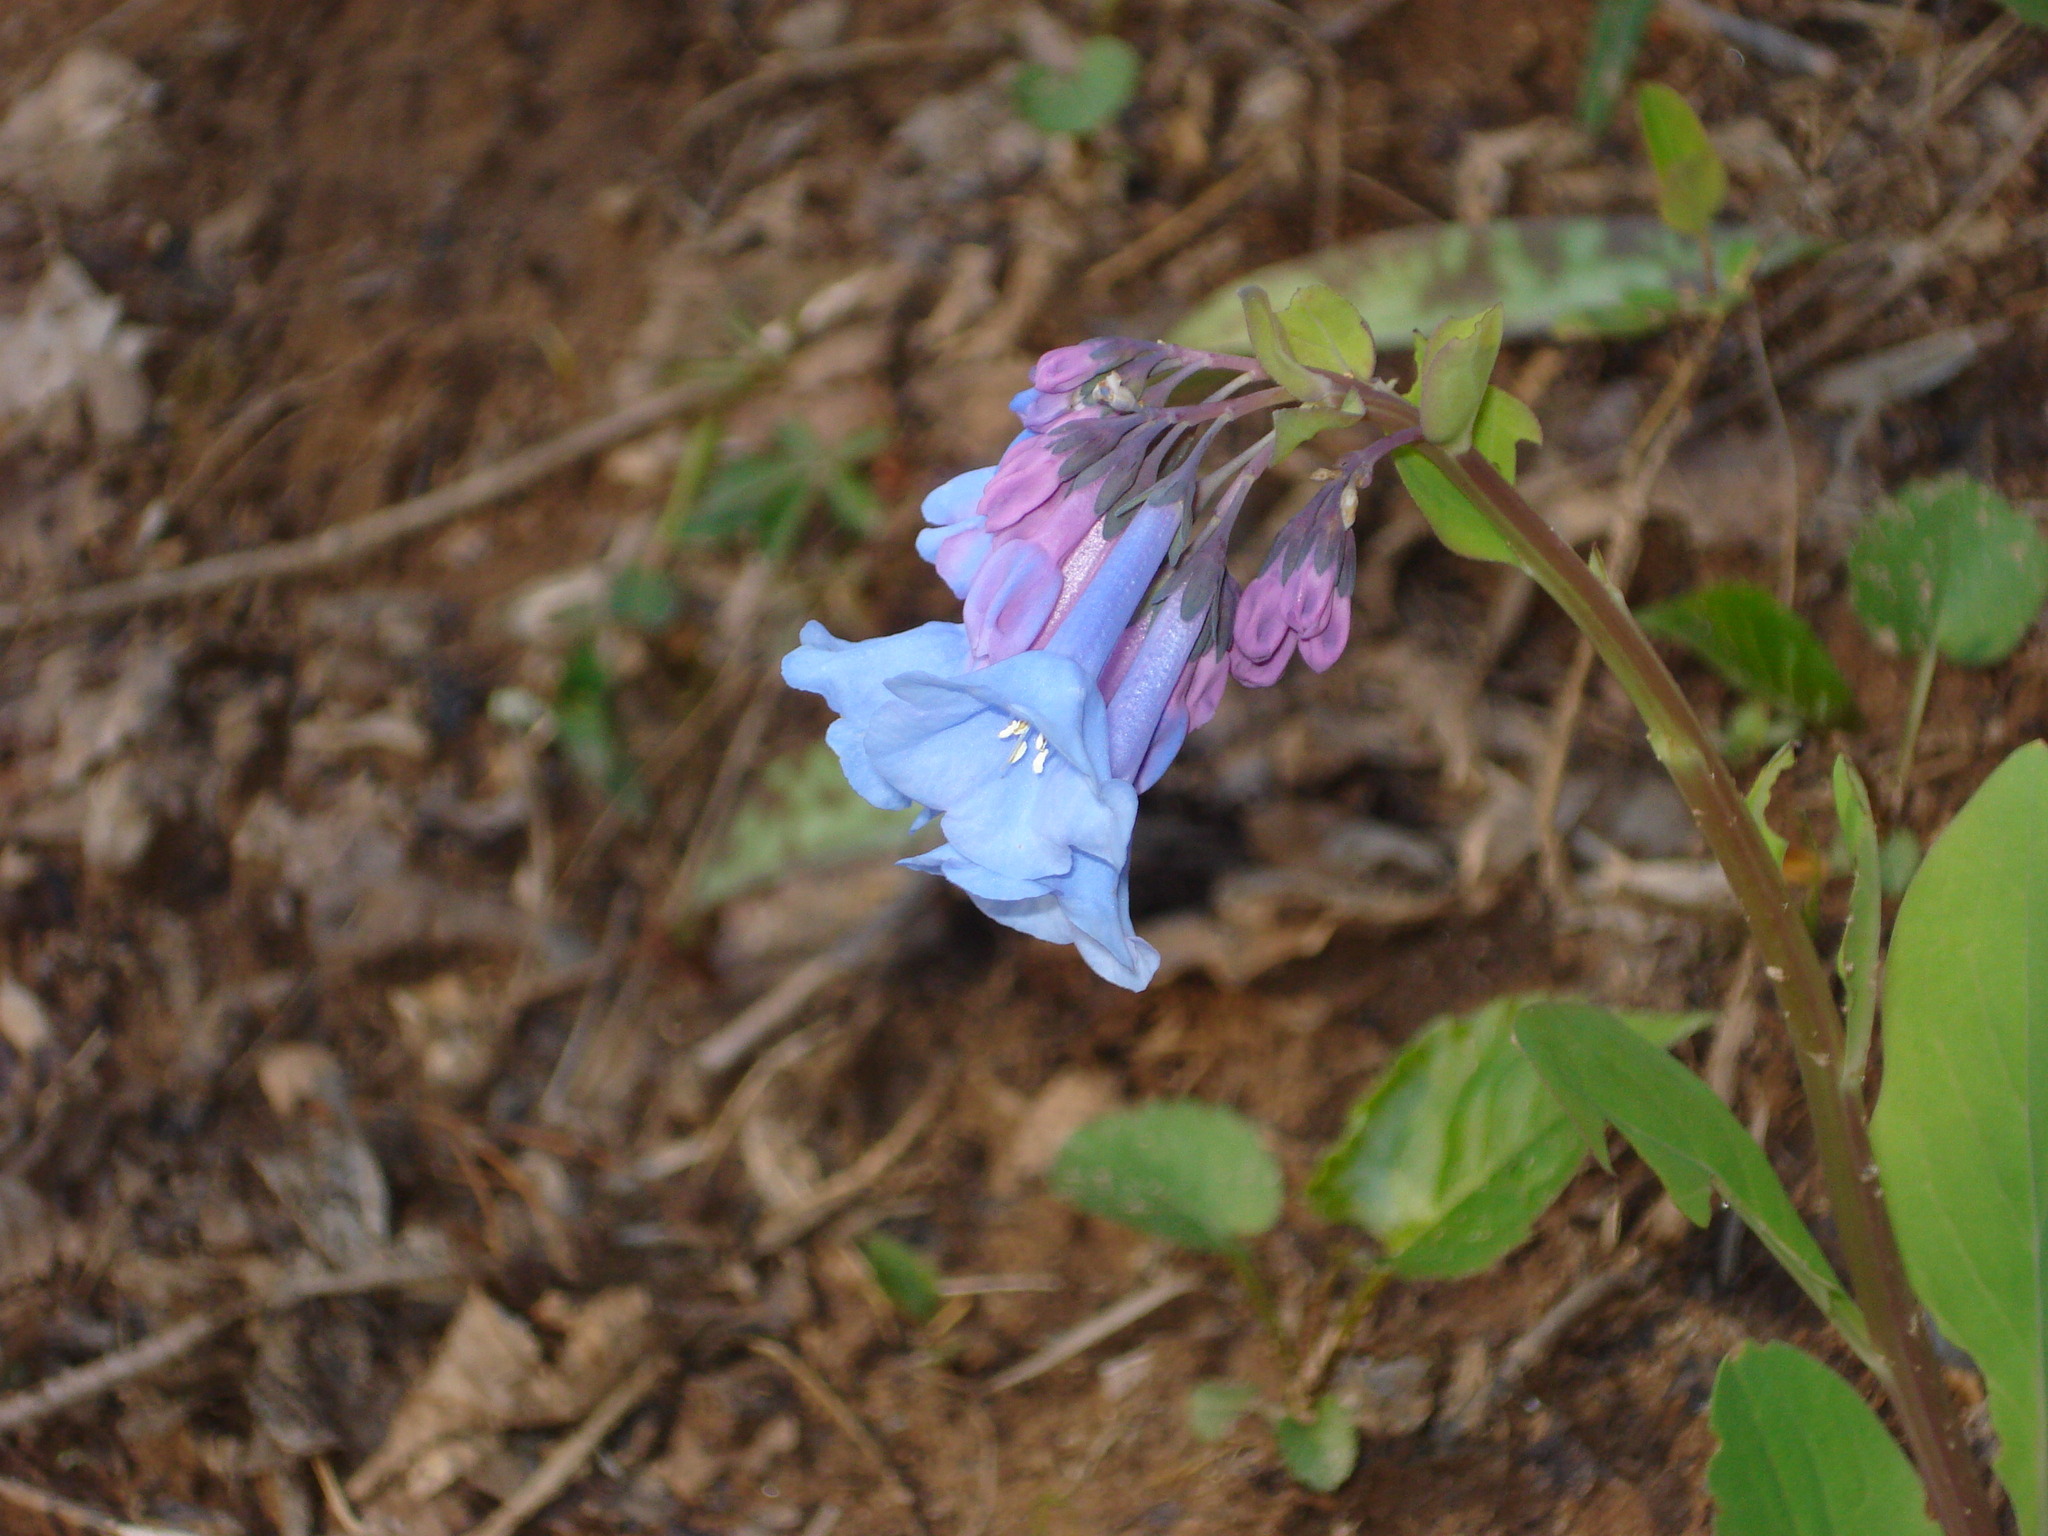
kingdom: Plantae
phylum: Tracheophyta
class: Magnoliopsida
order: Boraginales
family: Boraginaceae
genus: Mertensia
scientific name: Mertensia virginica
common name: Virginia bluebells
